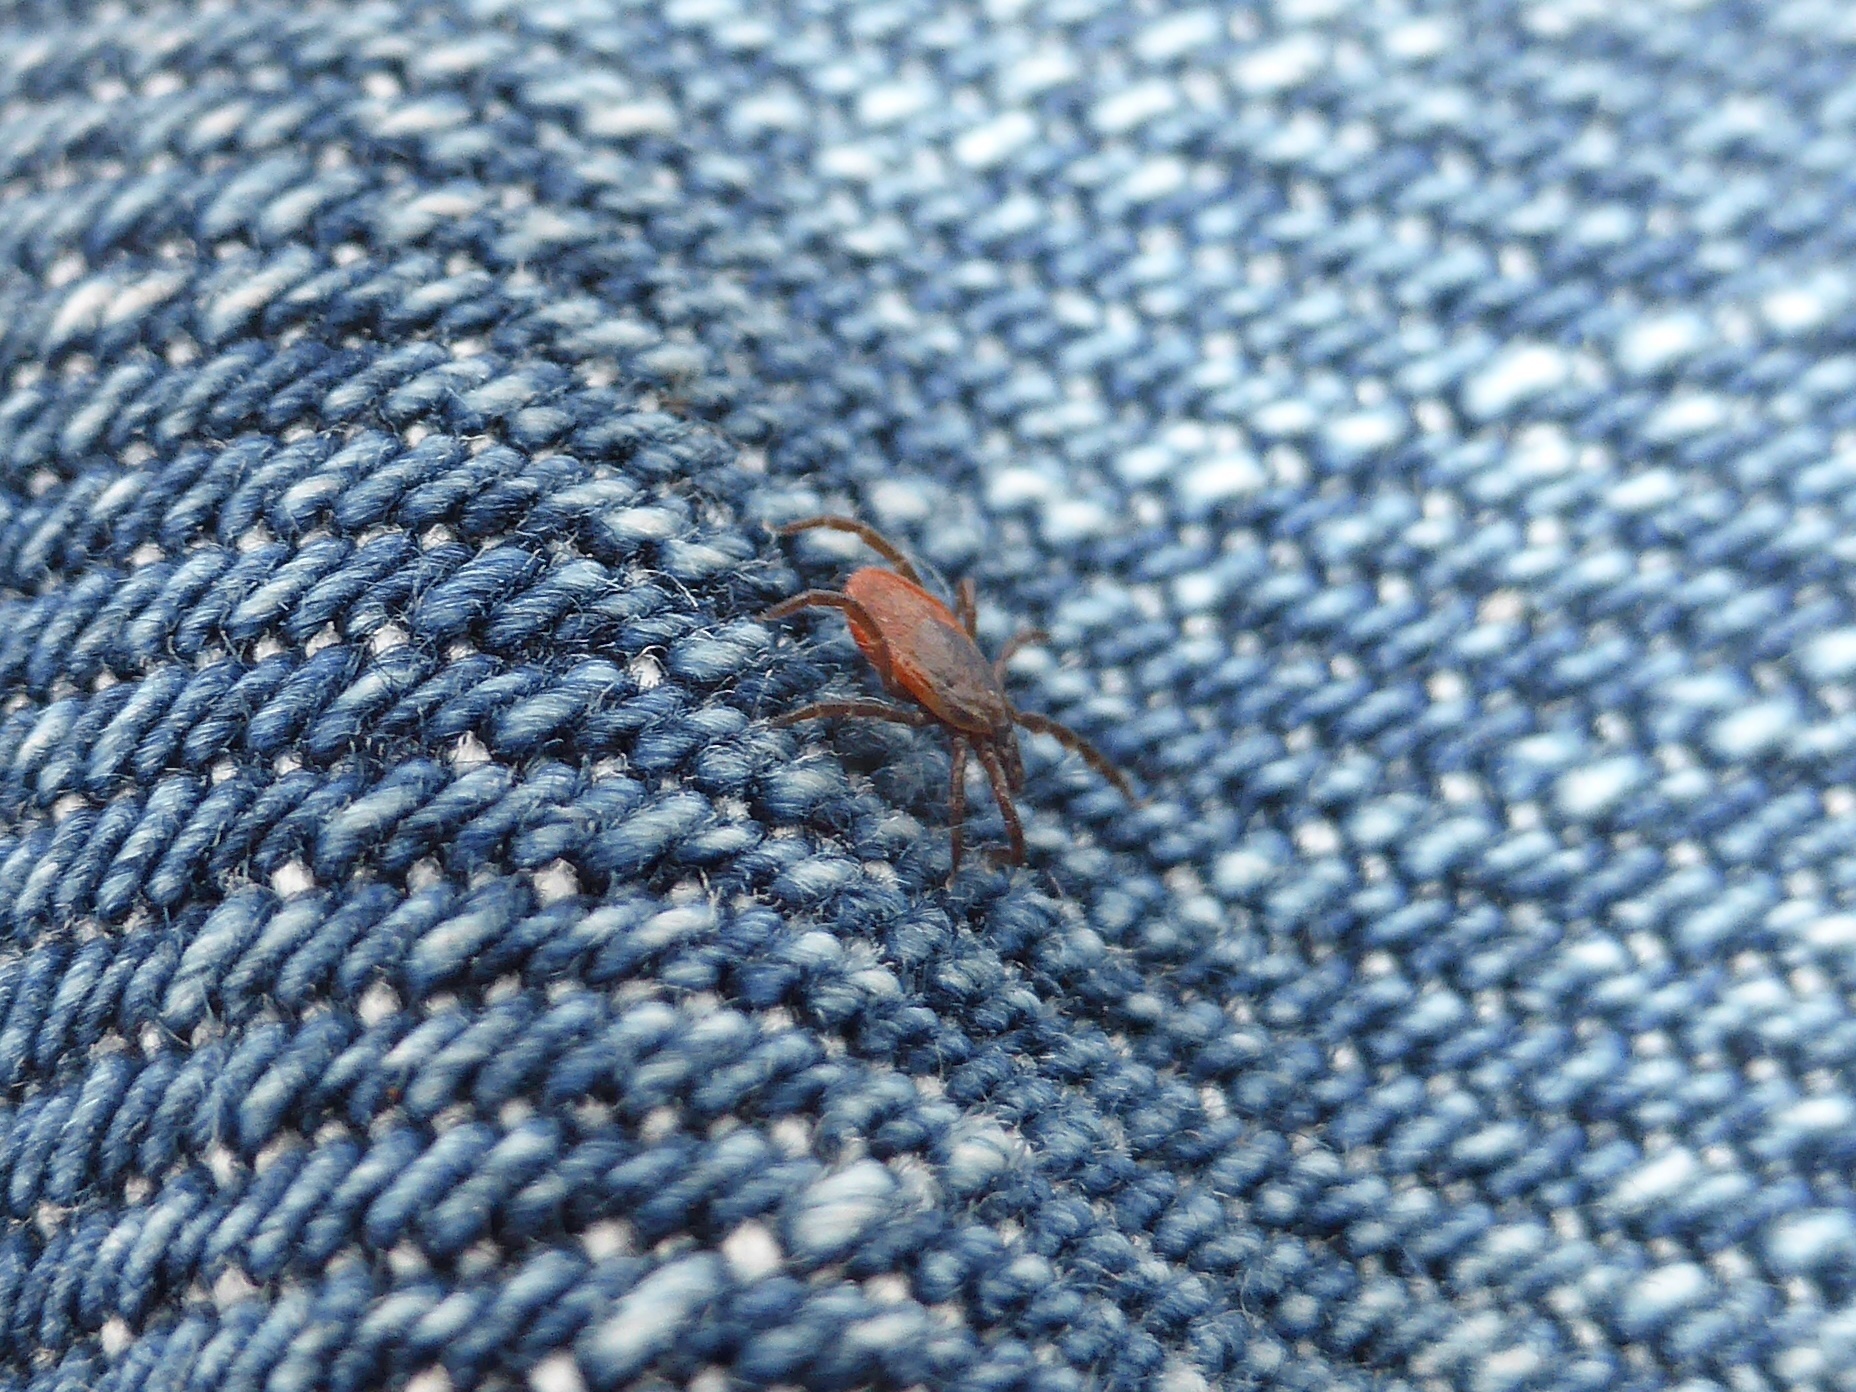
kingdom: Animalia
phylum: Arthropoda
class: Arachnida
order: Ixodida
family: Ixodidae
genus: Ixodes
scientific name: Ixodes ricinus
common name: Castor bean tick
